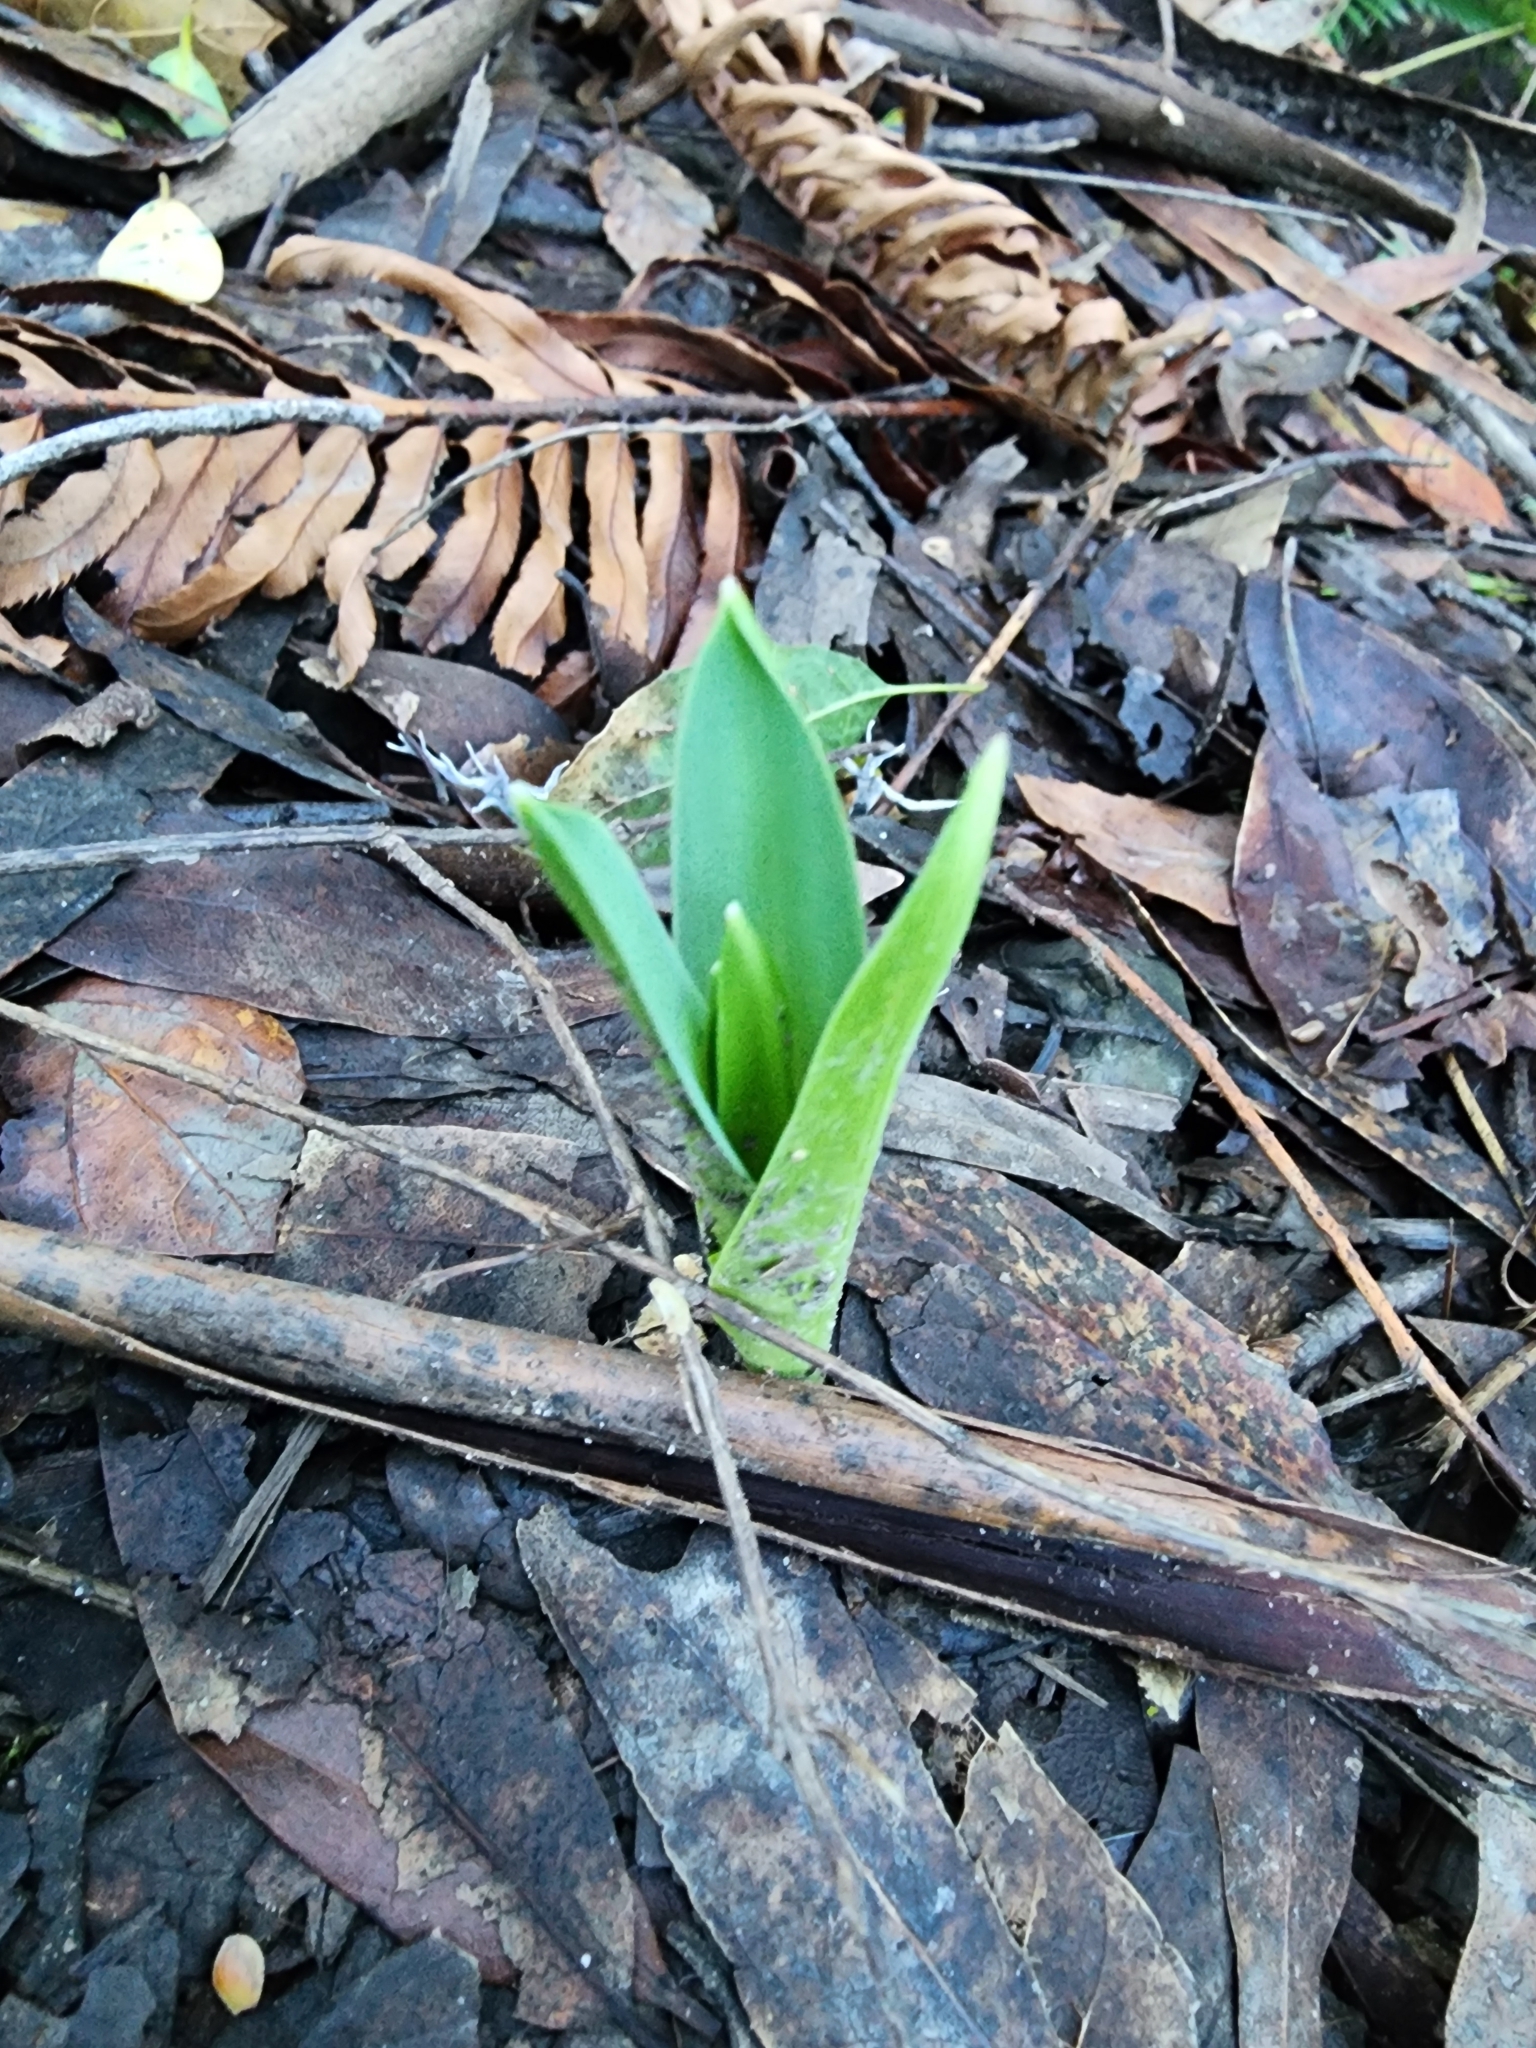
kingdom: Plantae
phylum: Tracheophyta
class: Liliopsida
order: Asparagales
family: Asparagaceae
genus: Chlorogalum
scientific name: Chlorogalum pomeridianum
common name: Amole
